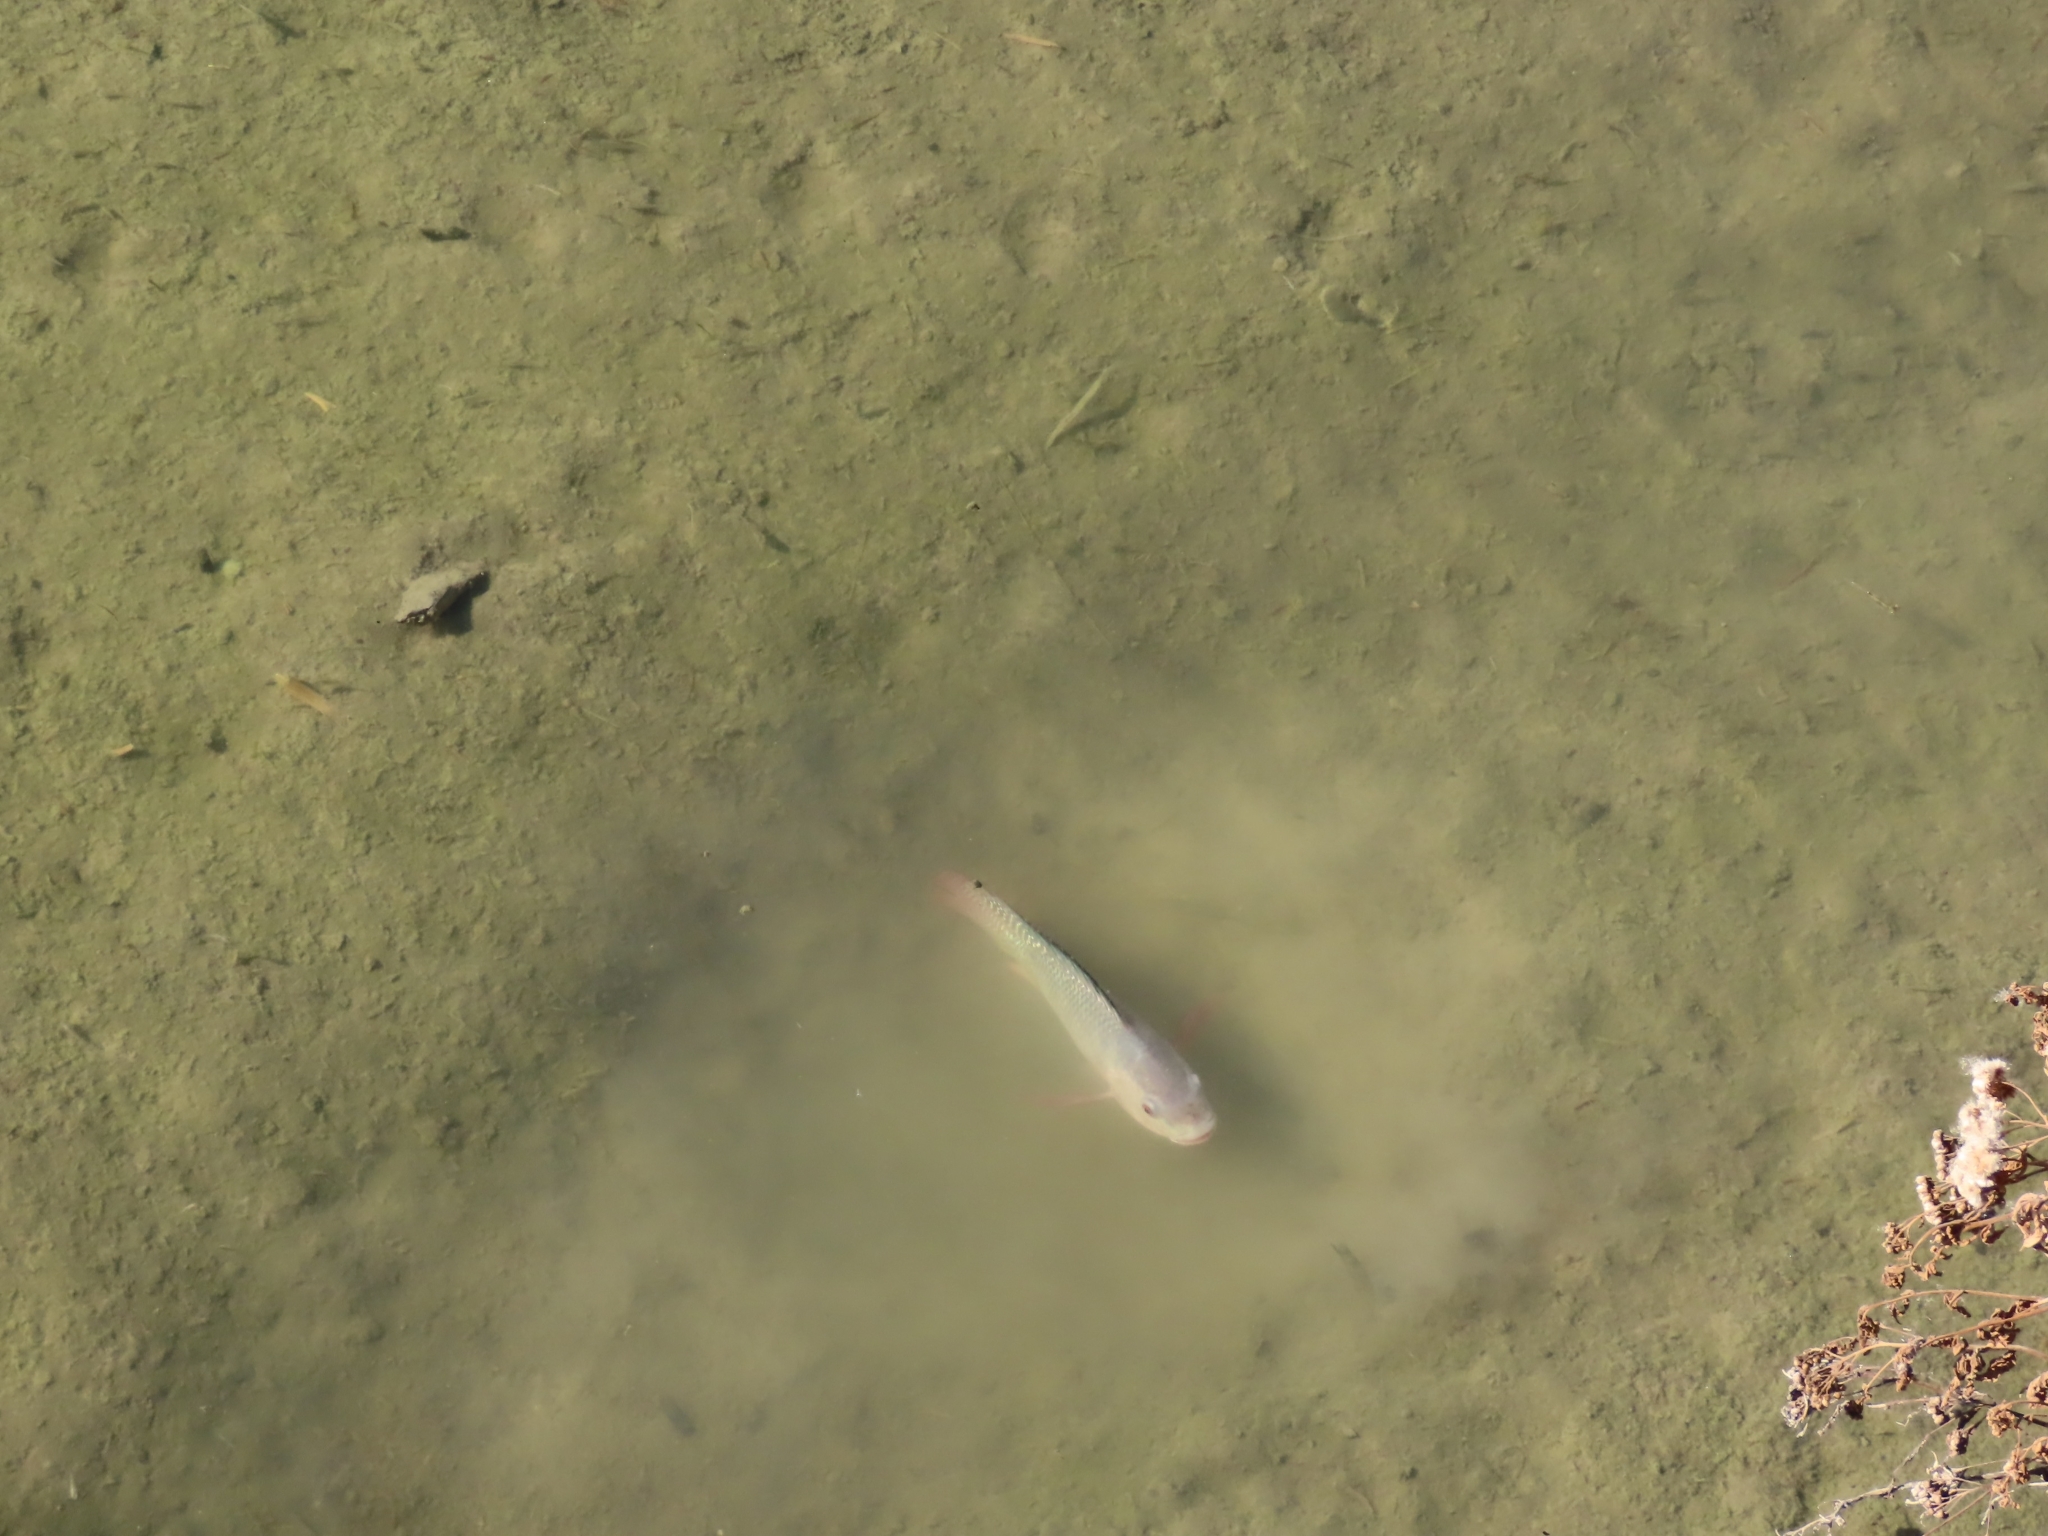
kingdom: Animalia
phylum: Chordata
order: Perciformes
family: Cichlidae
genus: Oreochromis
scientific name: Oreochromis niloticus
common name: Nile tilapia
